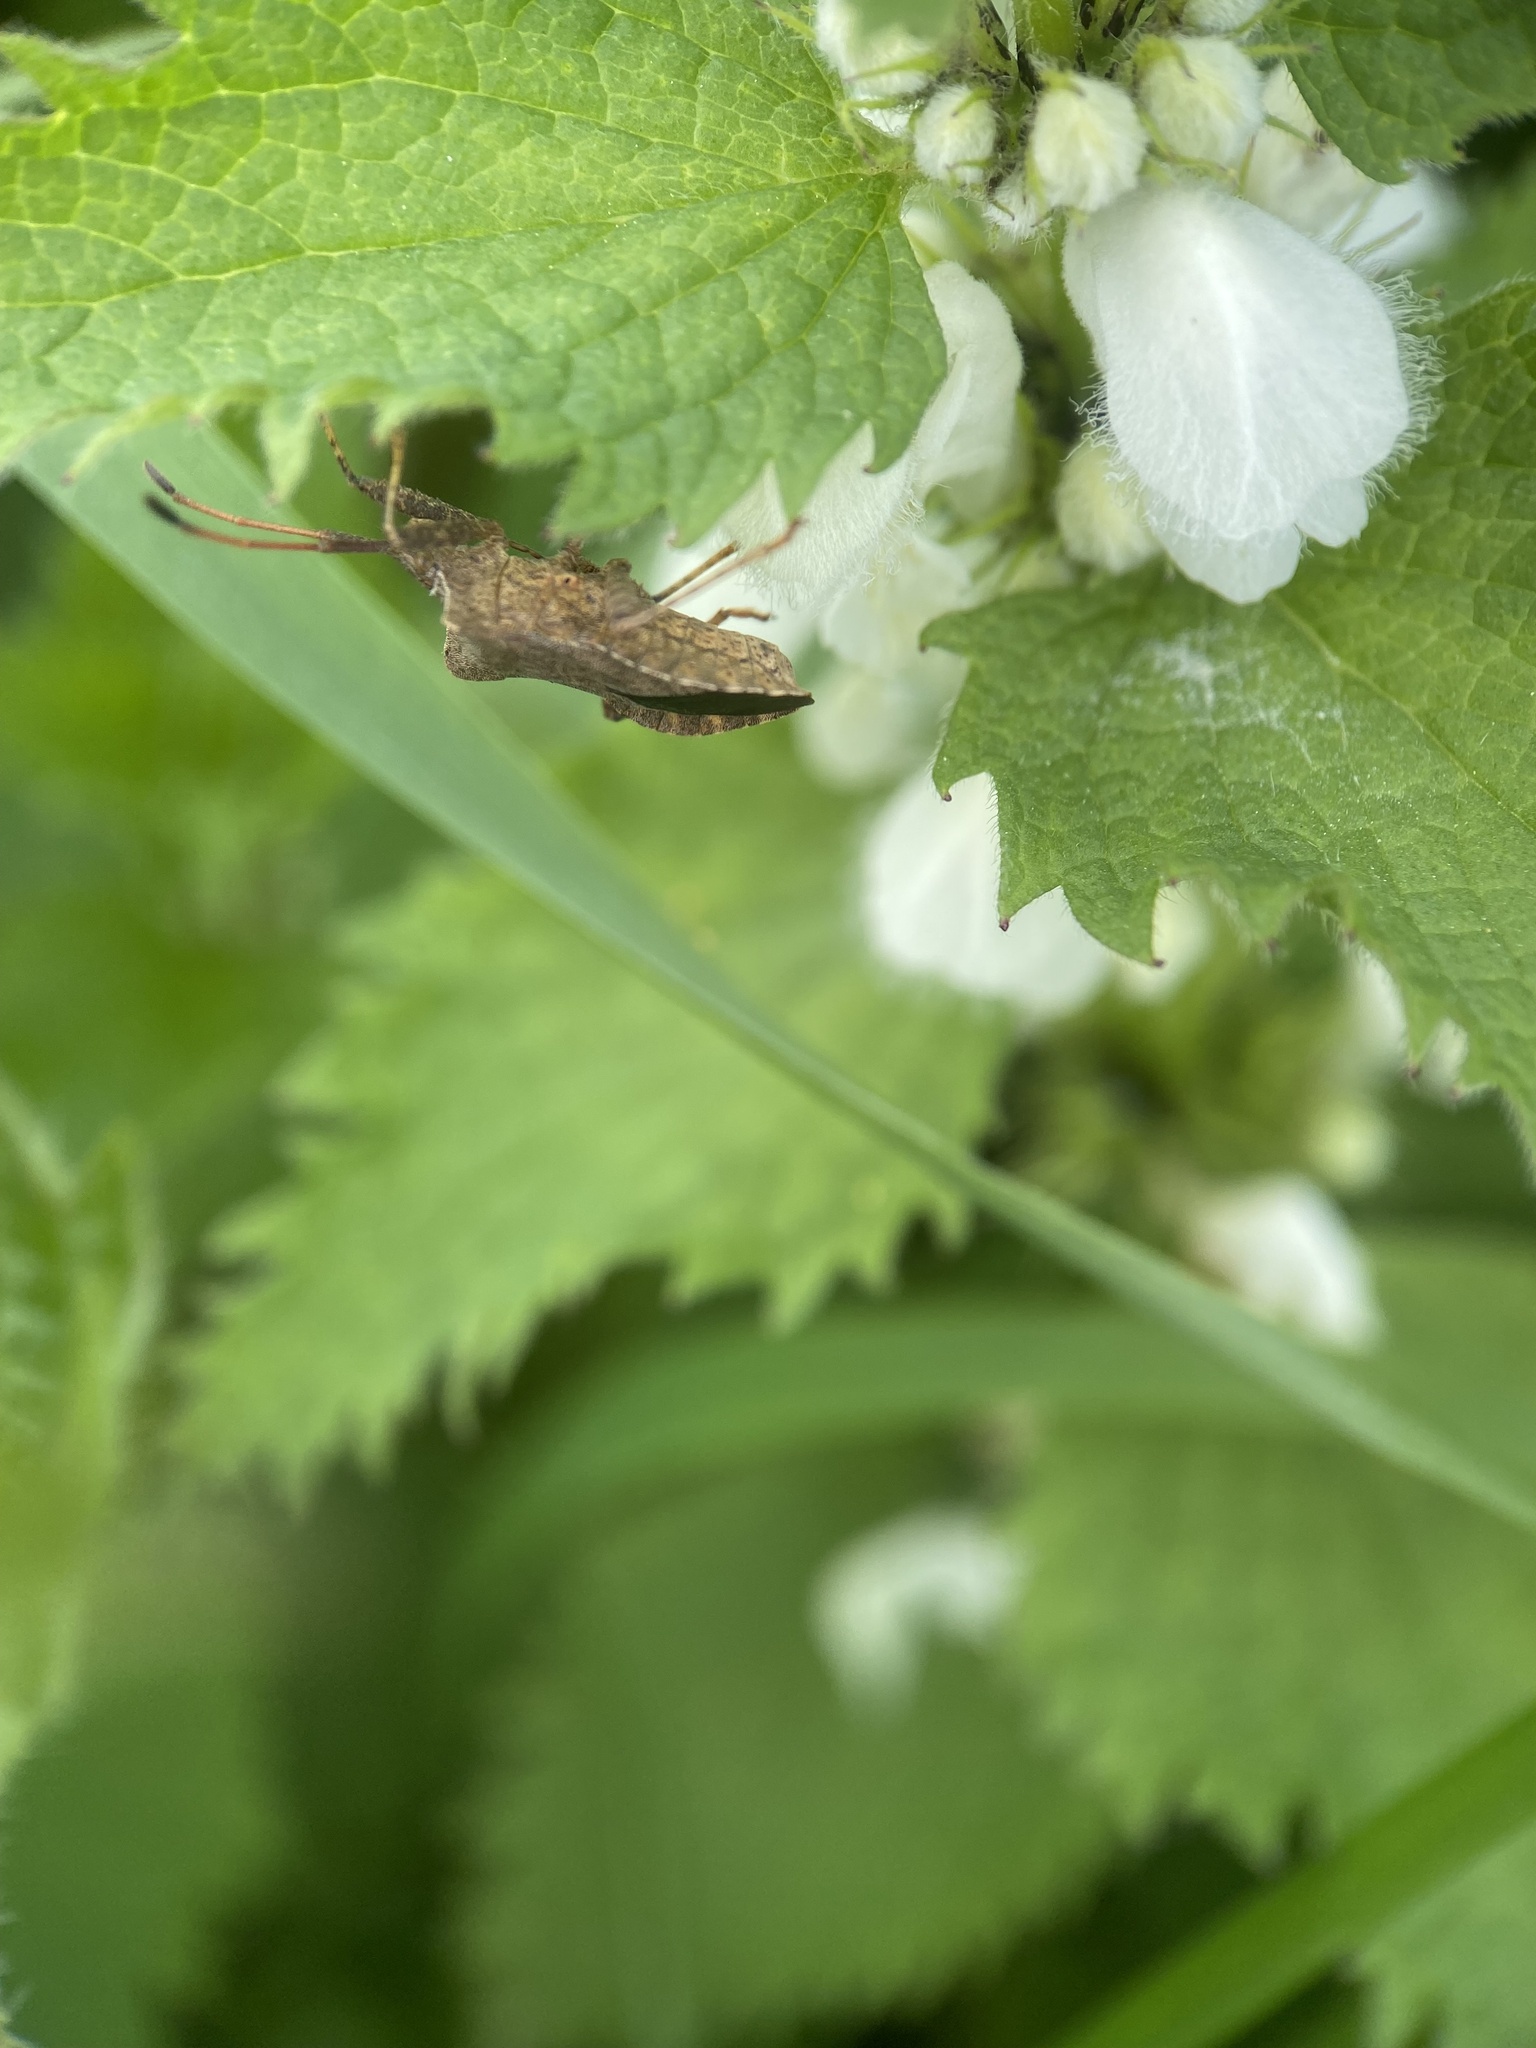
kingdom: Animalia
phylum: Arthropoda
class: Insecta
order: Hemiptera
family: Coreidae
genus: Coreus
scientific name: Coreus marginatus
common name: Dock bug
